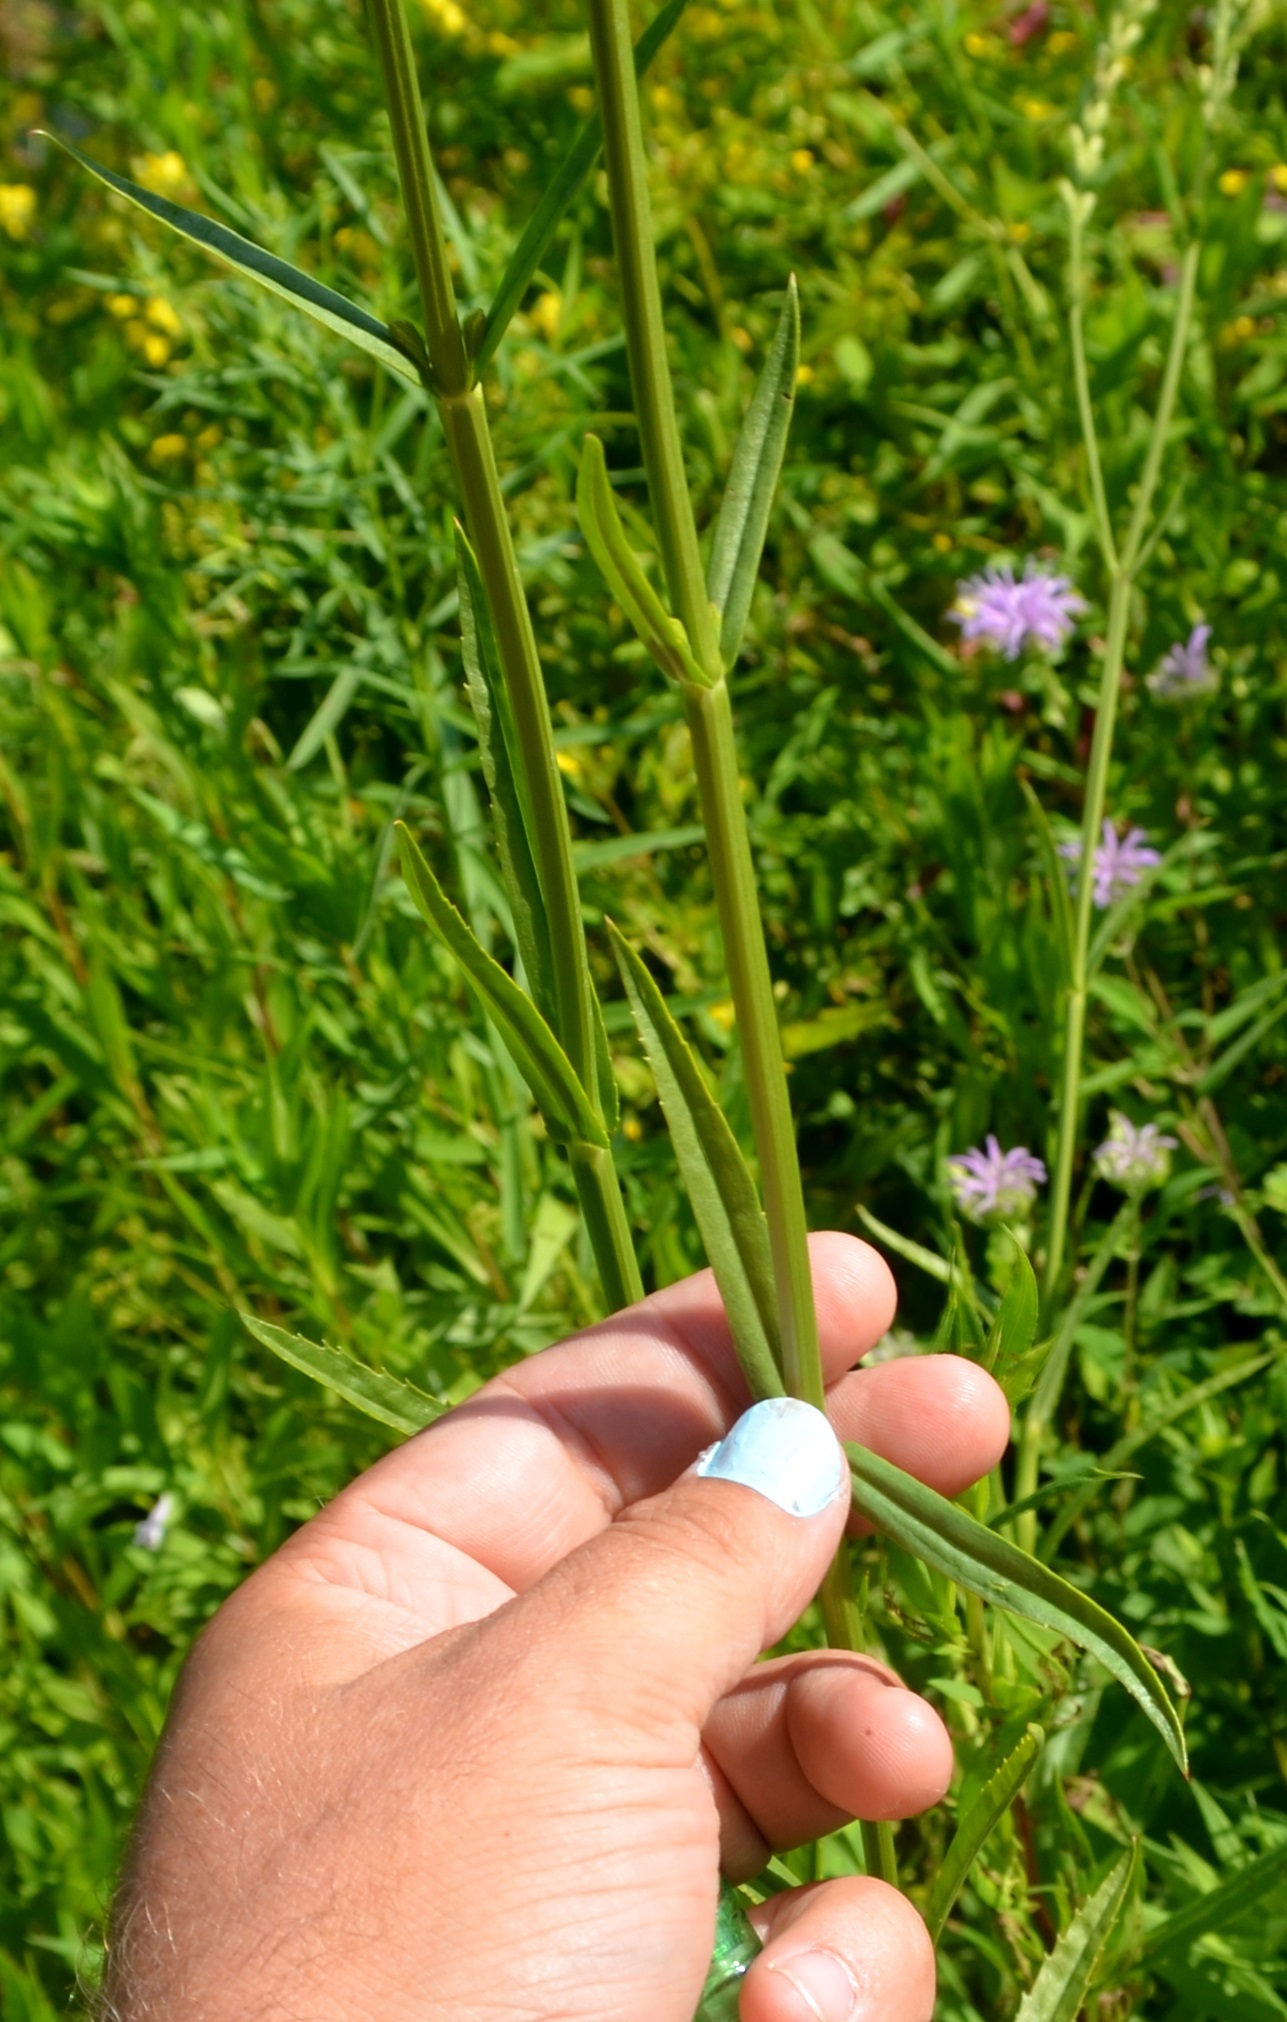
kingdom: Plantae
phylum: Tracheophyta
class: Magnoliopsida
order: Lamiales
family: Lamiaceae
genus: Physostegia
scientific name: Physostegia virginiana
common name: Obedient-plant
